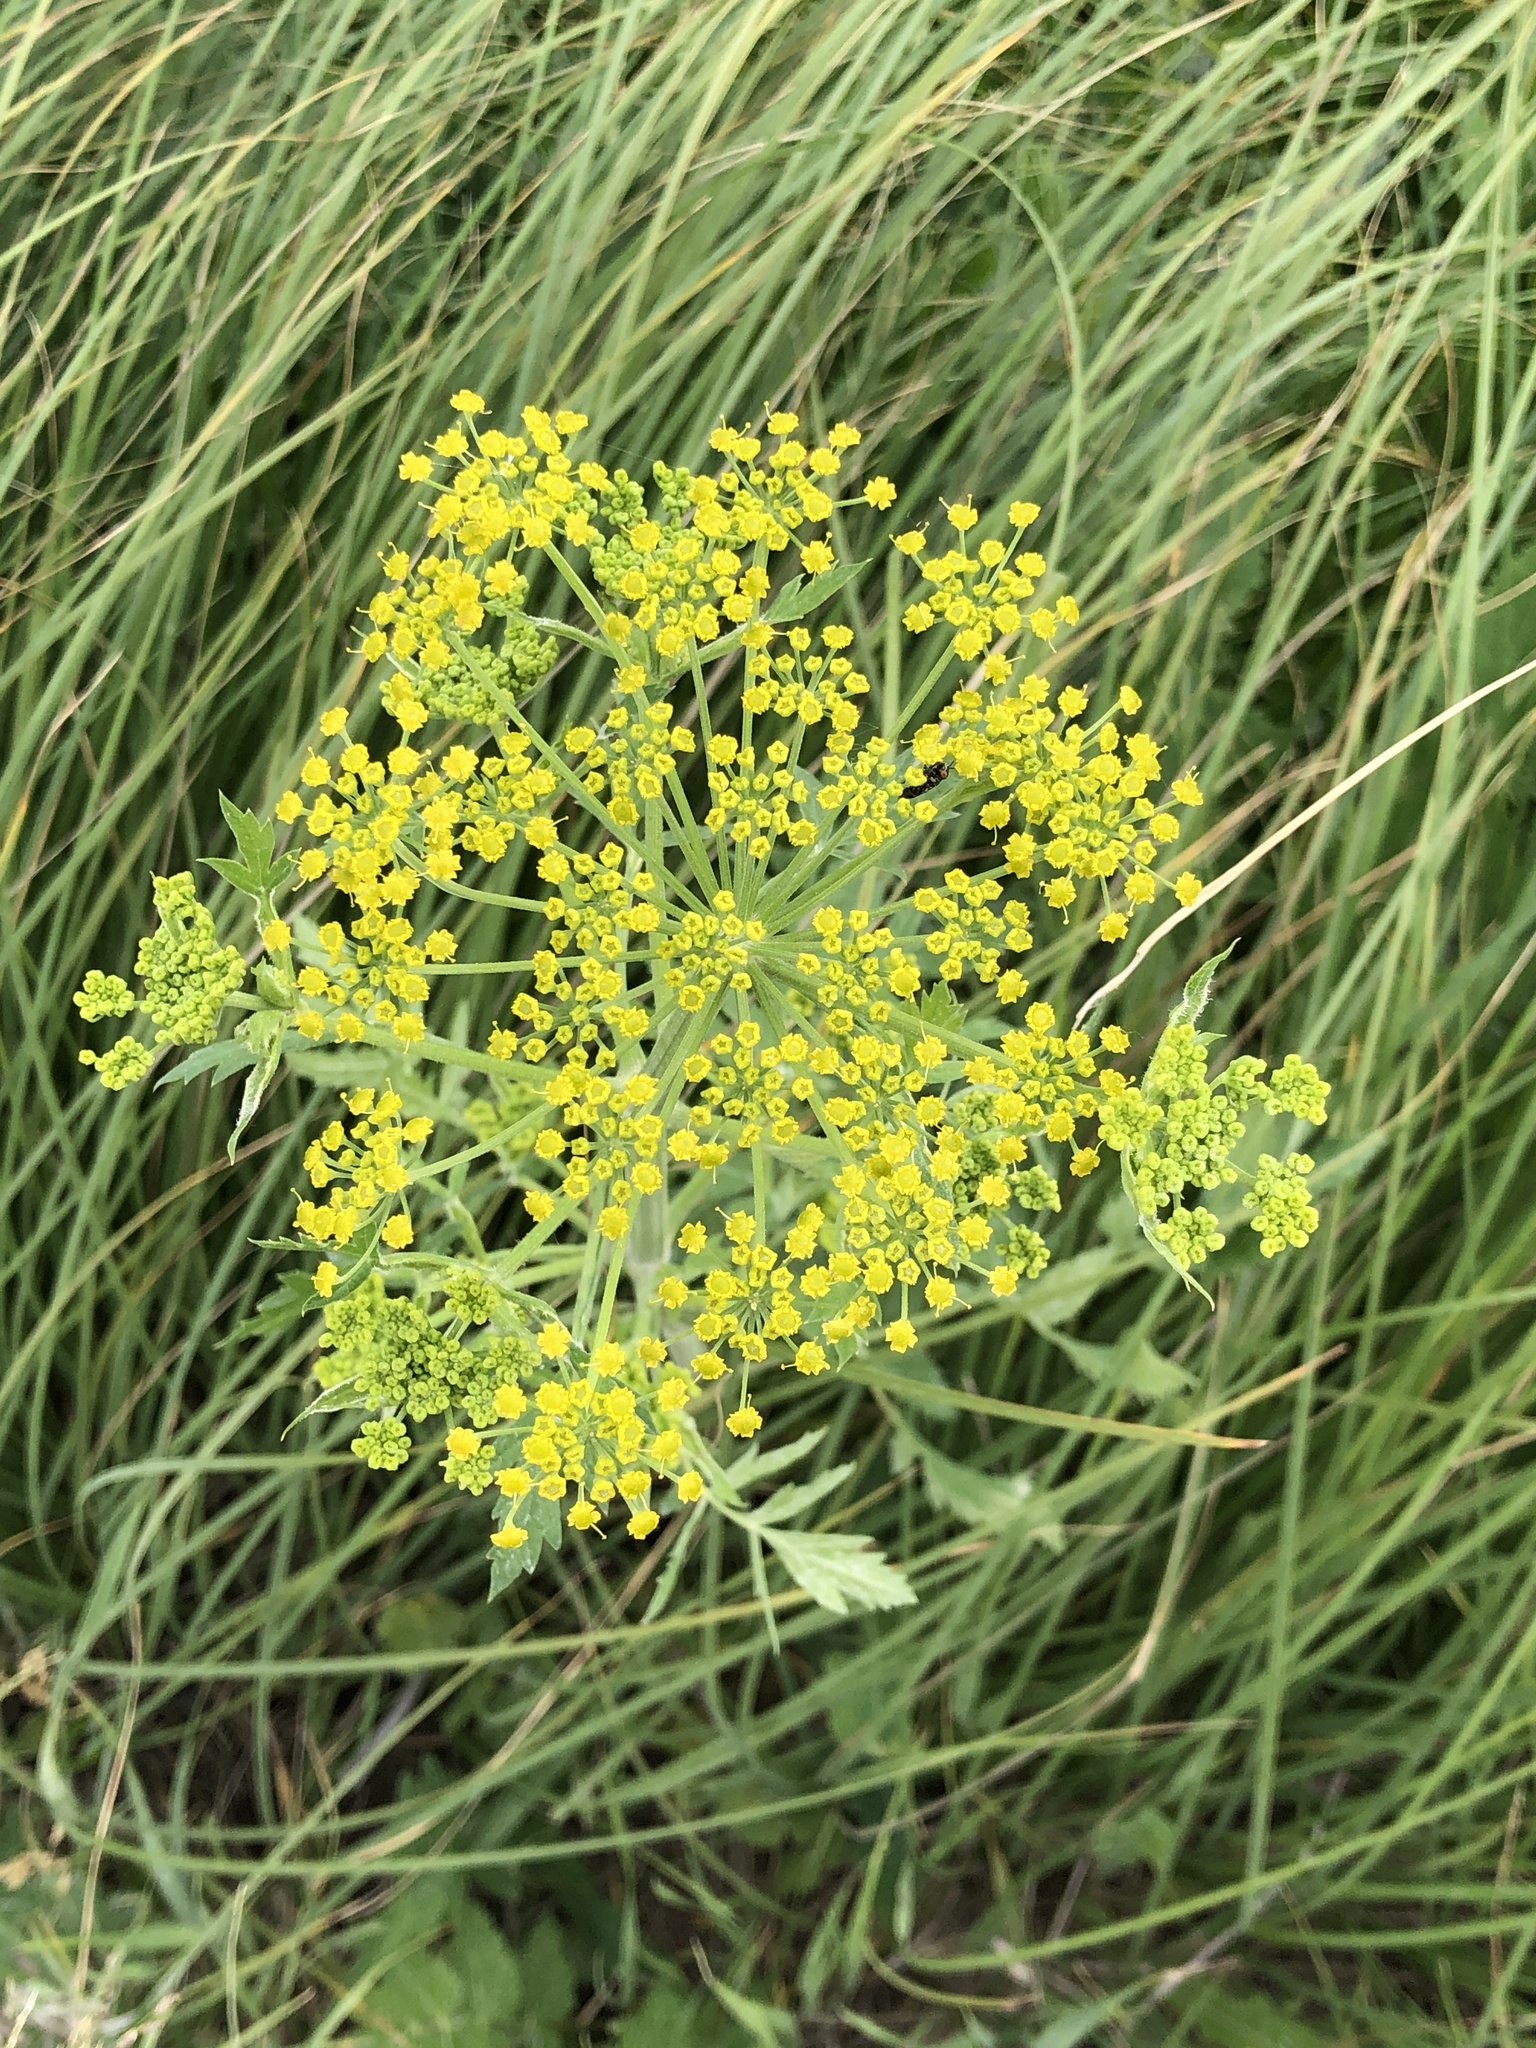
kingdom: Plantae
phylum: Tracheophyta
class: Magnoliopsida
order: Apiales
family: Apiaceae
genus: Zizia
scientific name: Zizia aurea
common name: Golden alexanders
